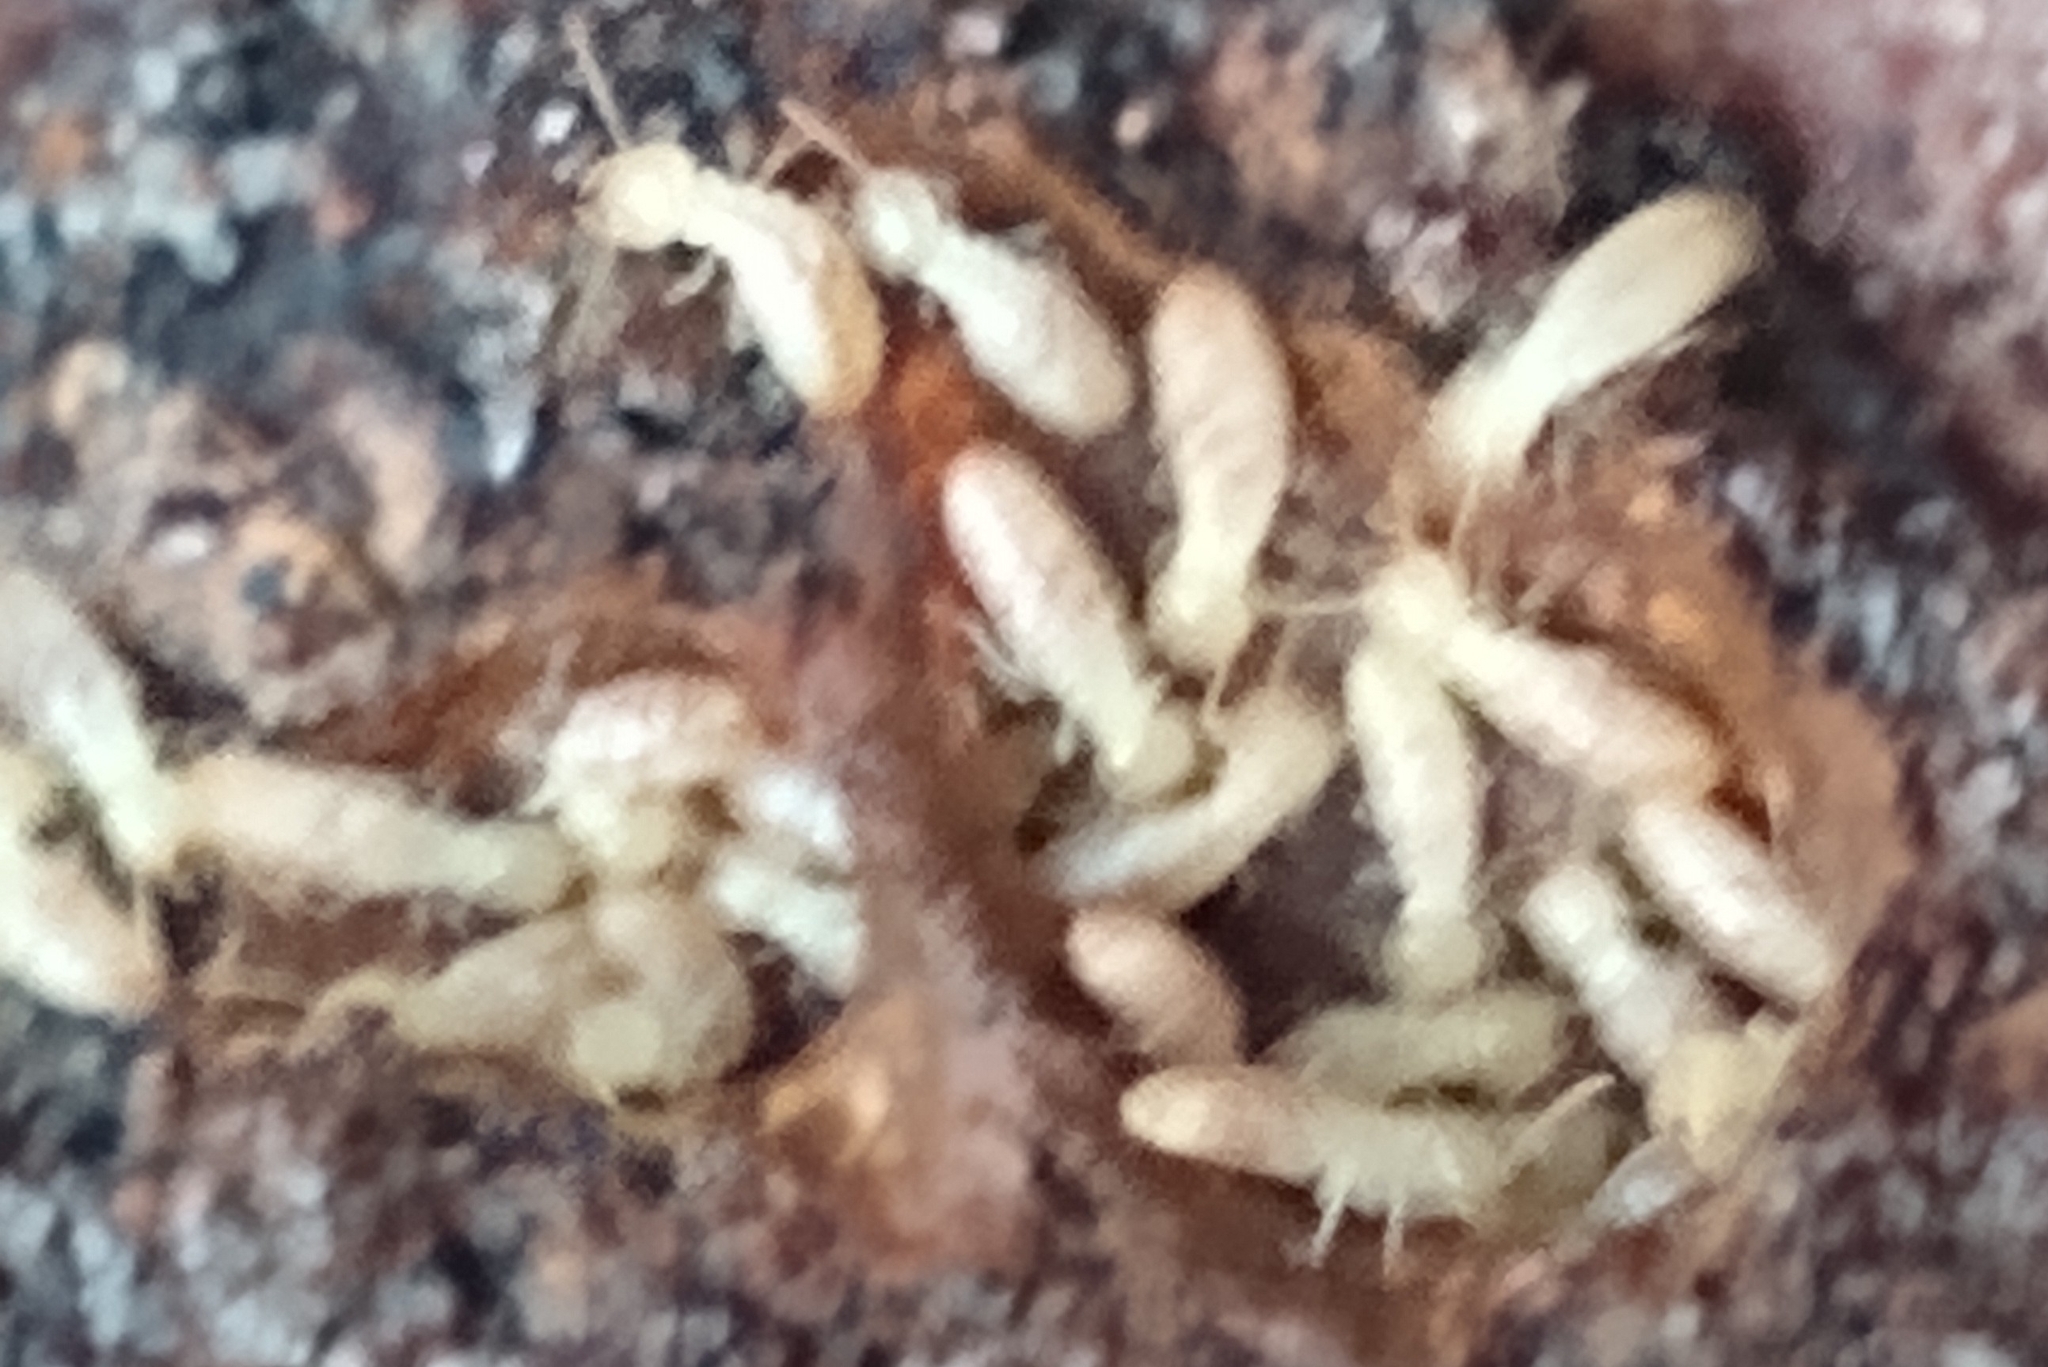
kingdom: Animalia
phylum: Arthropoda
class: Insecta
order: Blattodea
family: Rhinotermitidae
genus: Reticulitermes
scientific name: Reticulitermes flavipes
